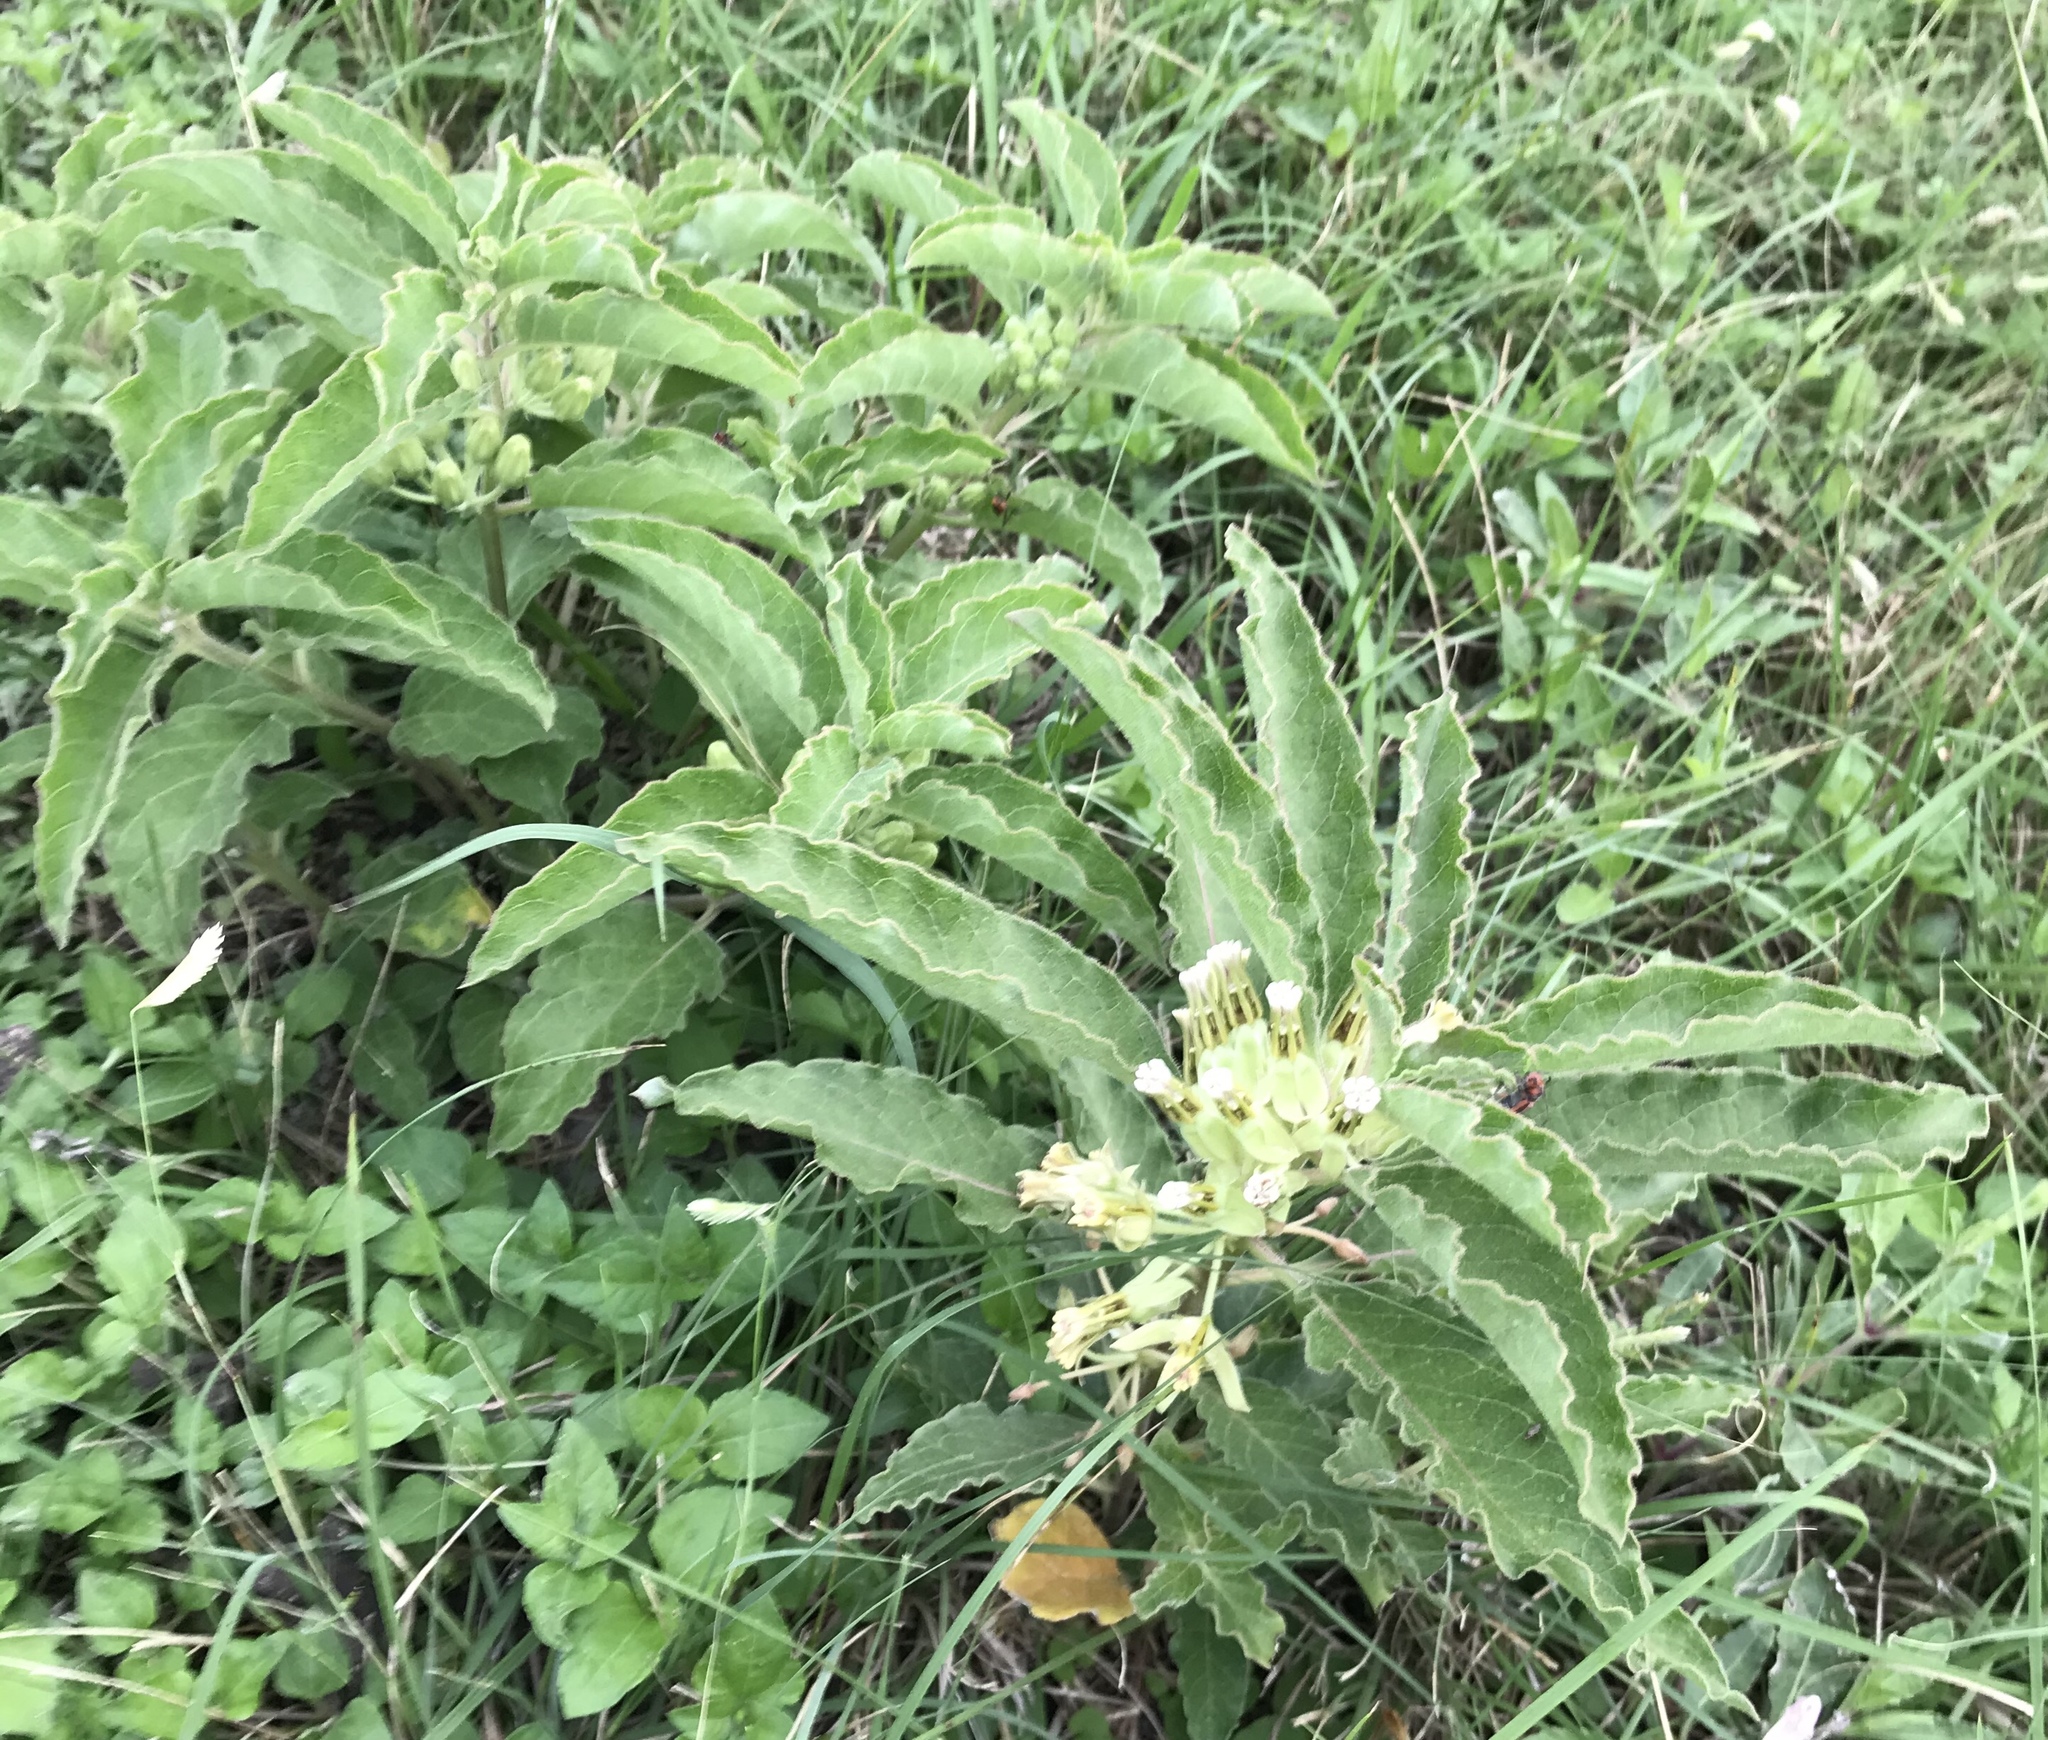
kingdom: Plantae
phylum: Tracheophyta
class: Magnoliopsida
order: Gentianales
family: Apocynaceae
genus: Asclepias
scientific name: Asclepias oenotheroides
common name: Zizotes milkweed
